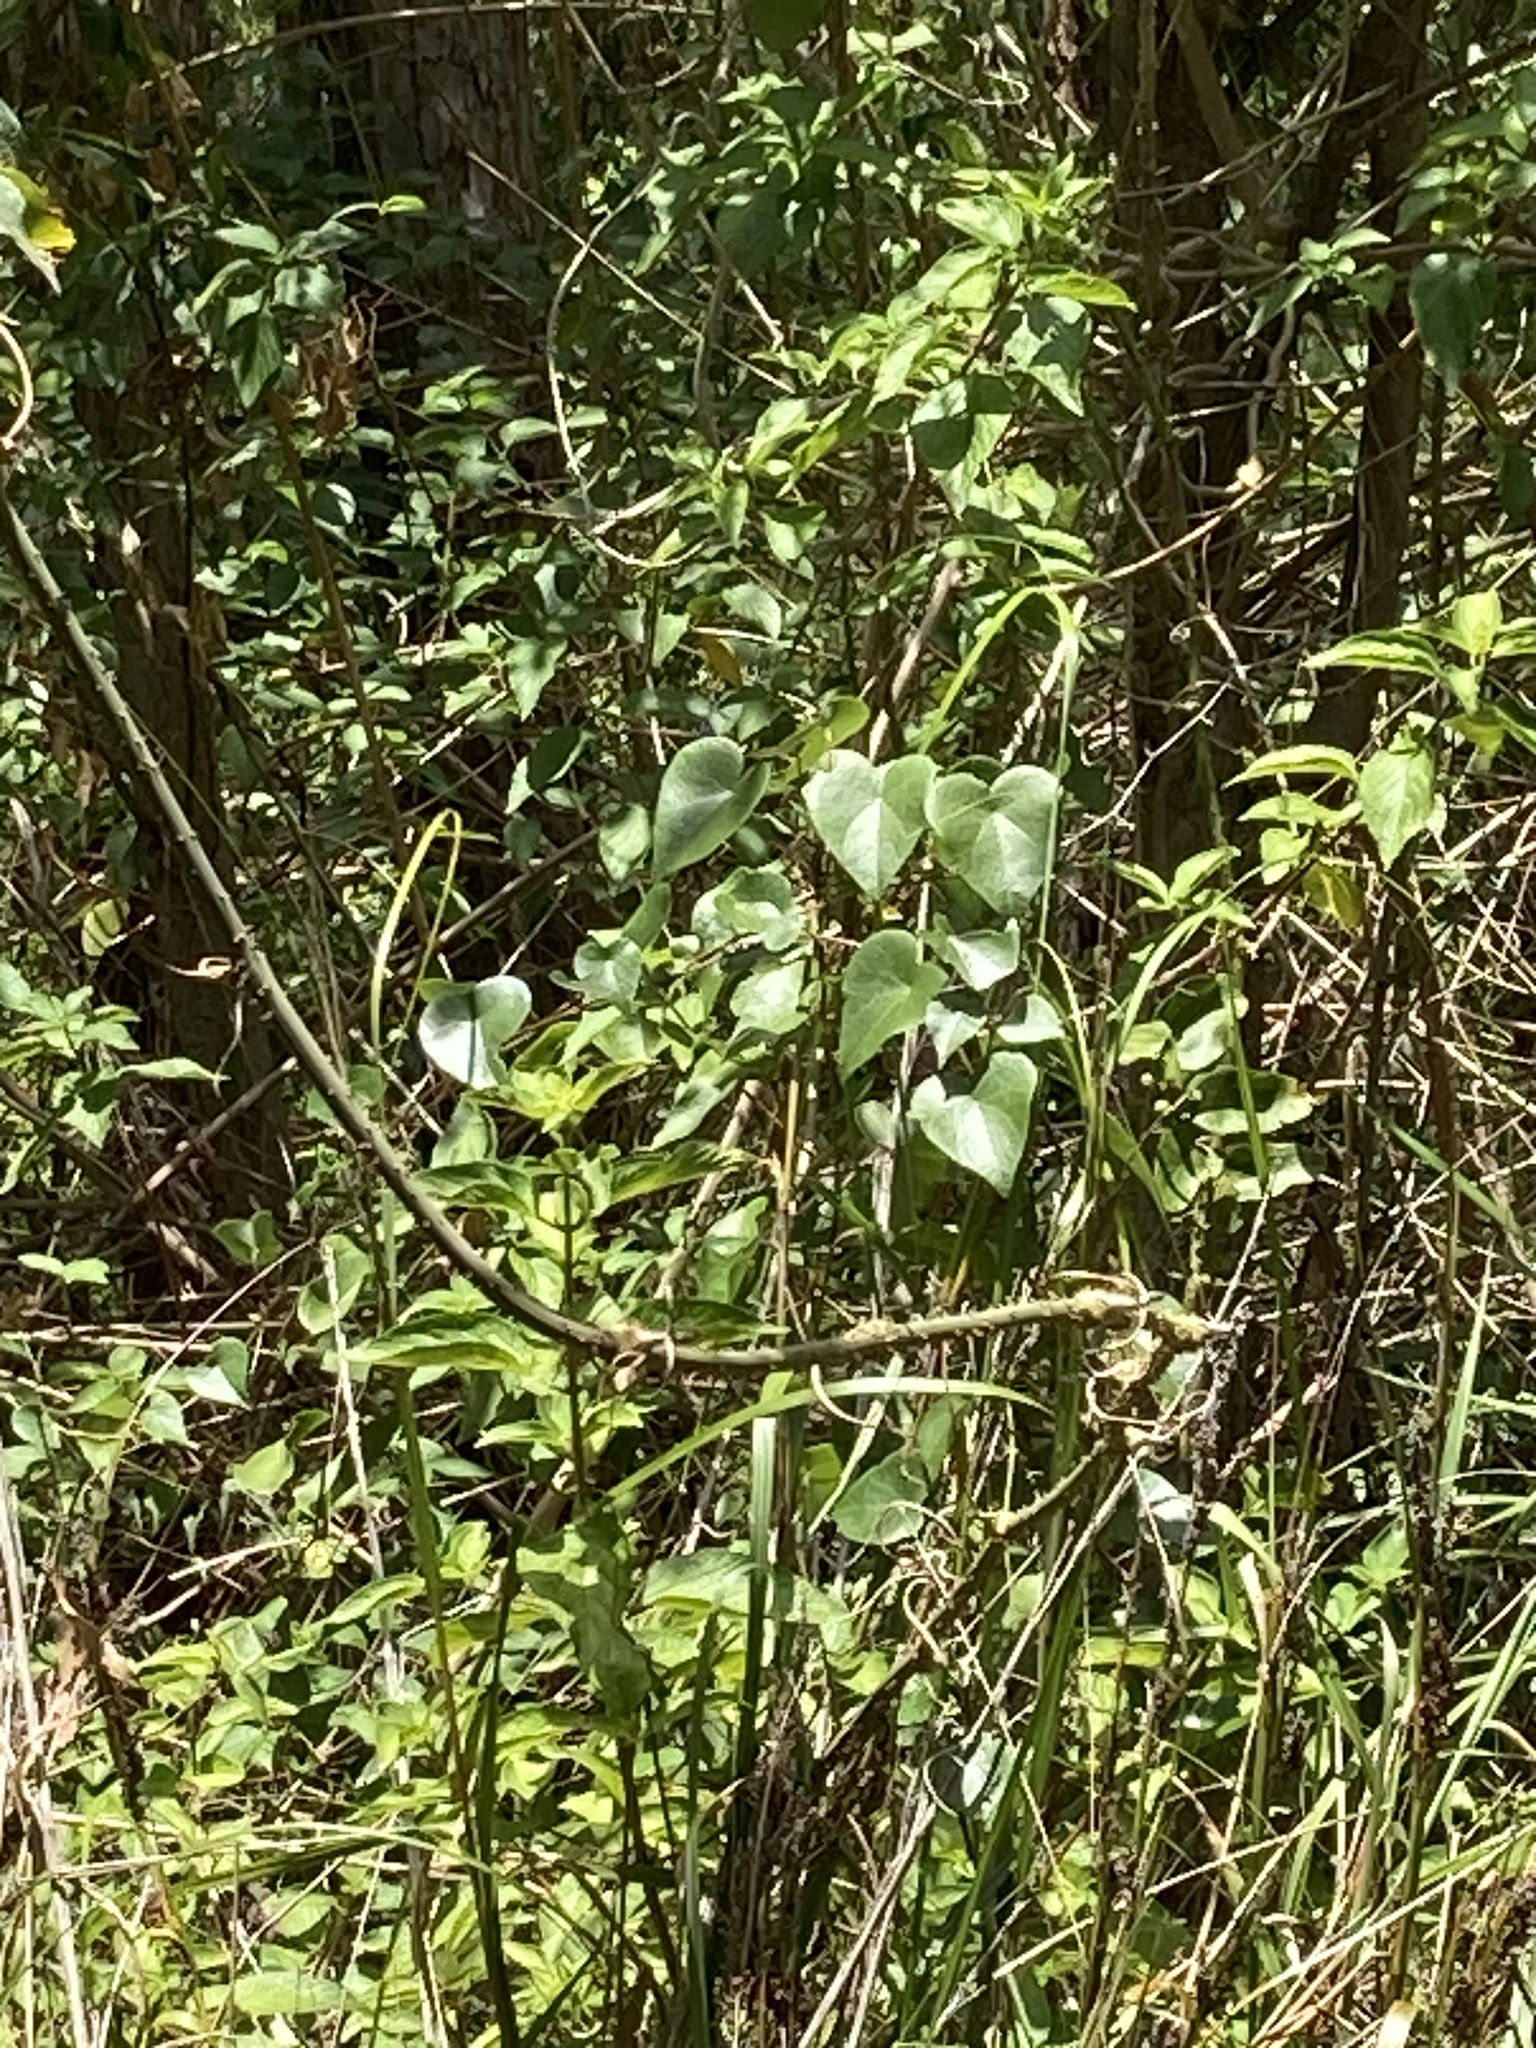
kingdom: Plantae
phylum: Tracheophyta
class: Magnoliopsida
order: Ranunculales
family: Menispermaceae
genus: Sarcopetalum
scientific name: Sarcopetalum harveyanum
